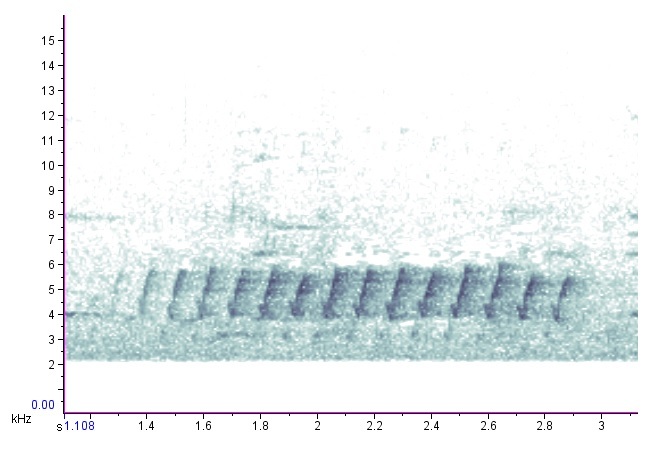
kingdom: Animalia
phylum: Chordata
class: Aves
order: Passeriformes
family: Parulidae
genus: Setophaga
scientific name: Setophaga pinus
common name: Pine warbler
